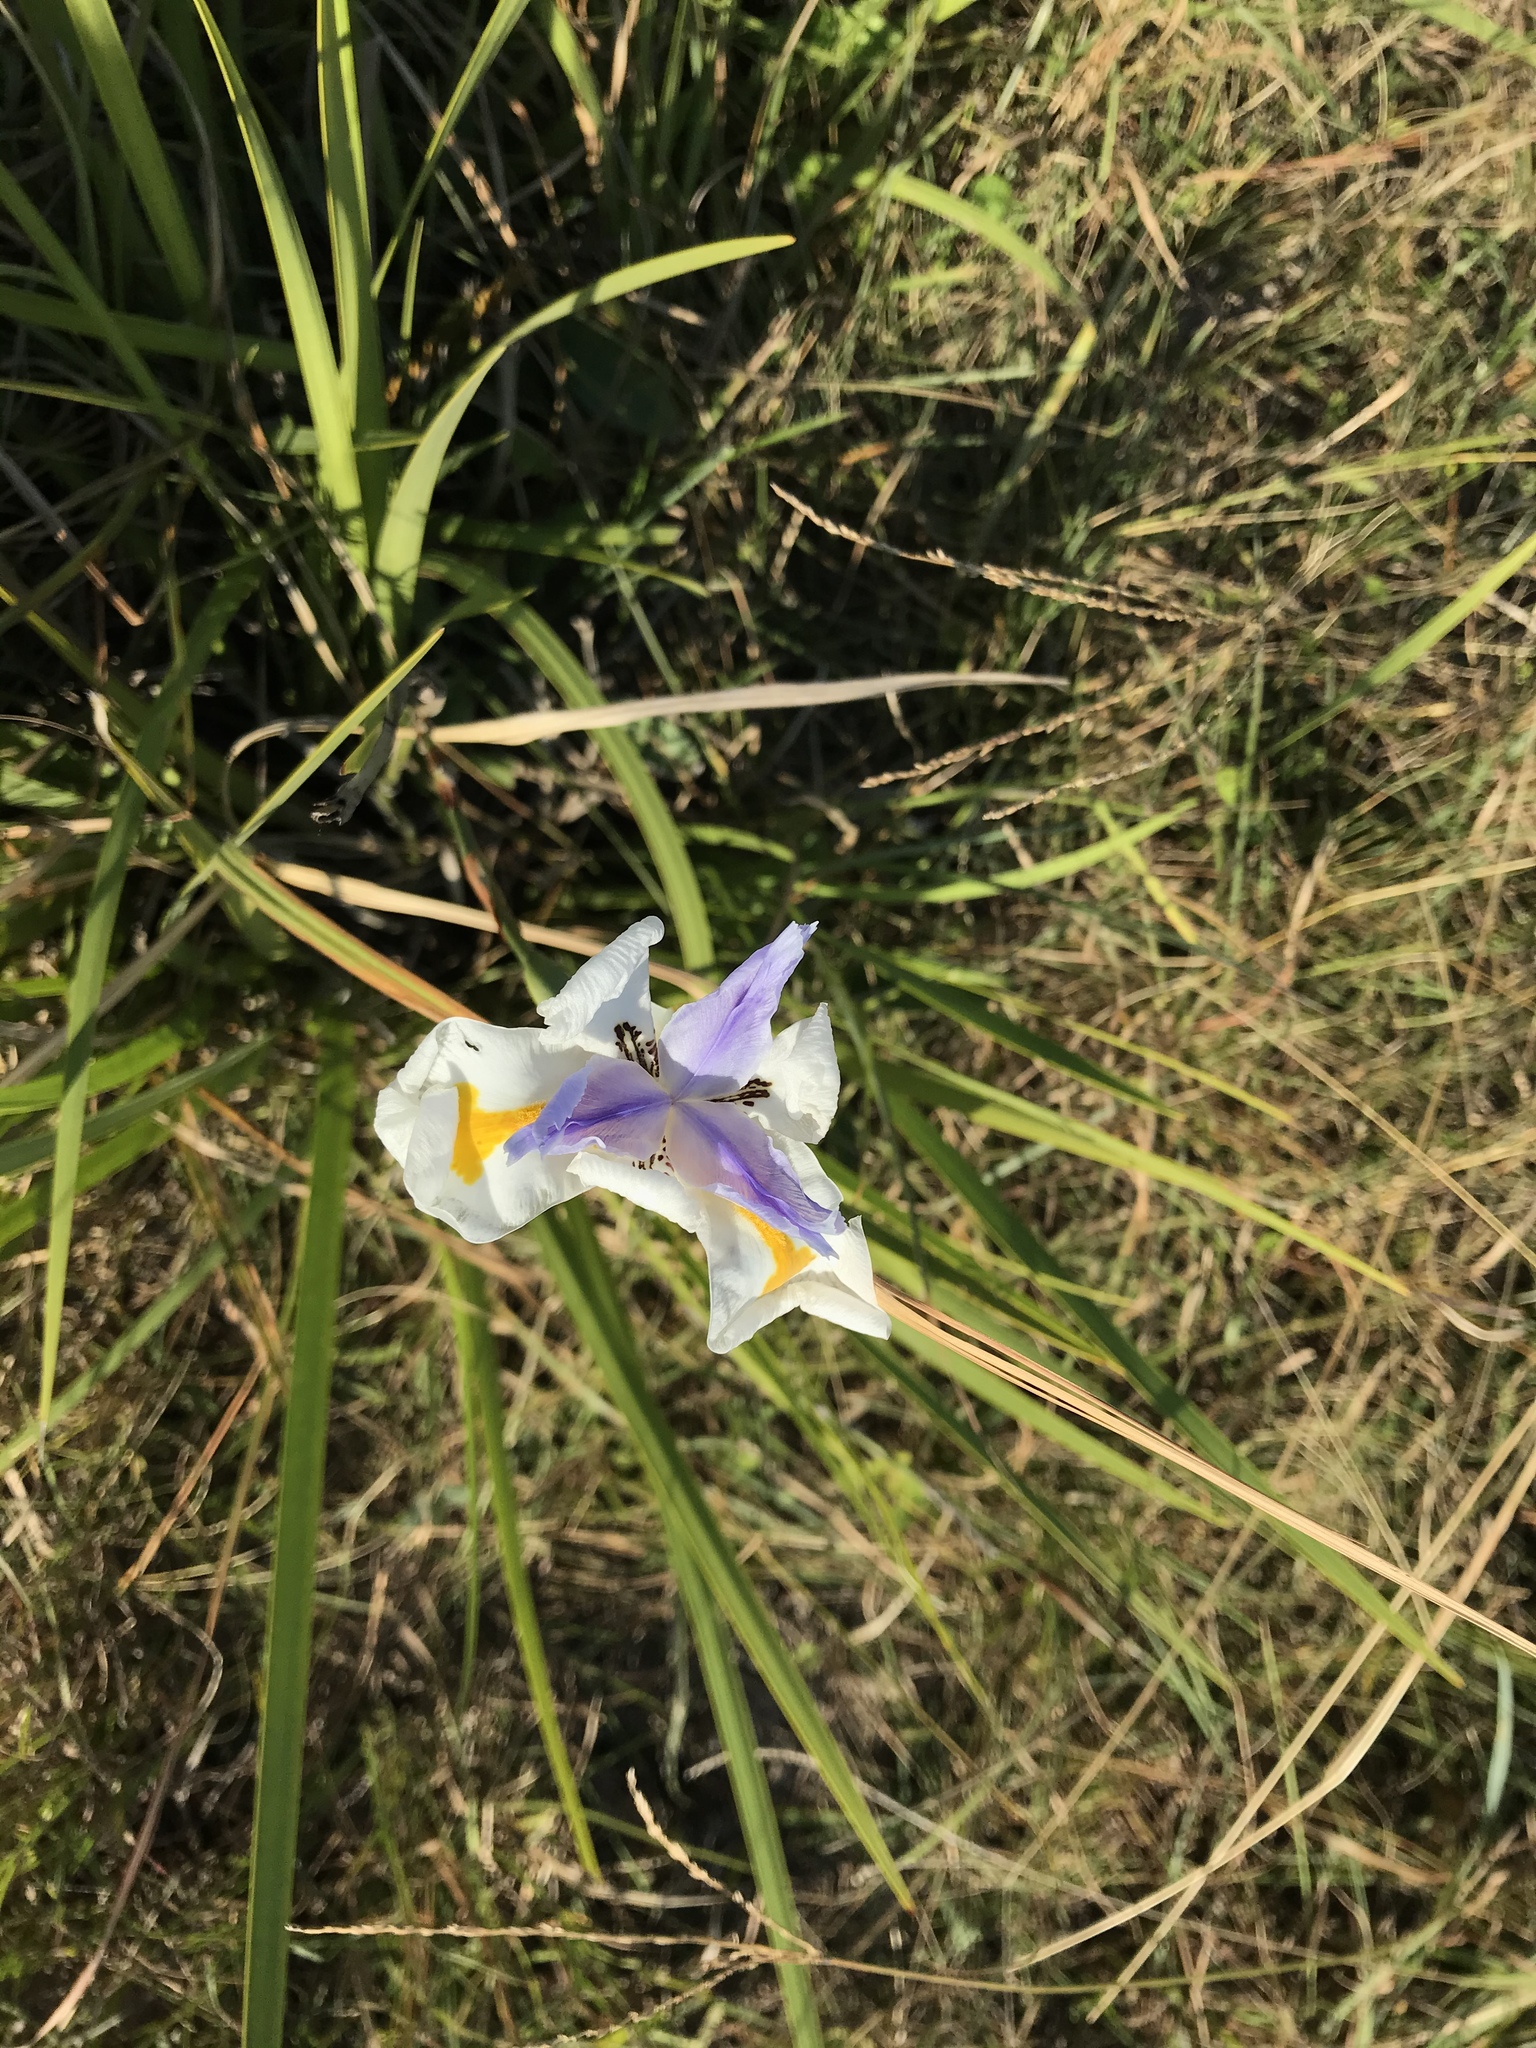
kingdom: Plantae
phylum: Tracheophyta
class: Liliopsida
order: Asparagales
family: Iridaceae
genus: Dietes
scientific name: Dietes grandiflora
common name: Wild iris
